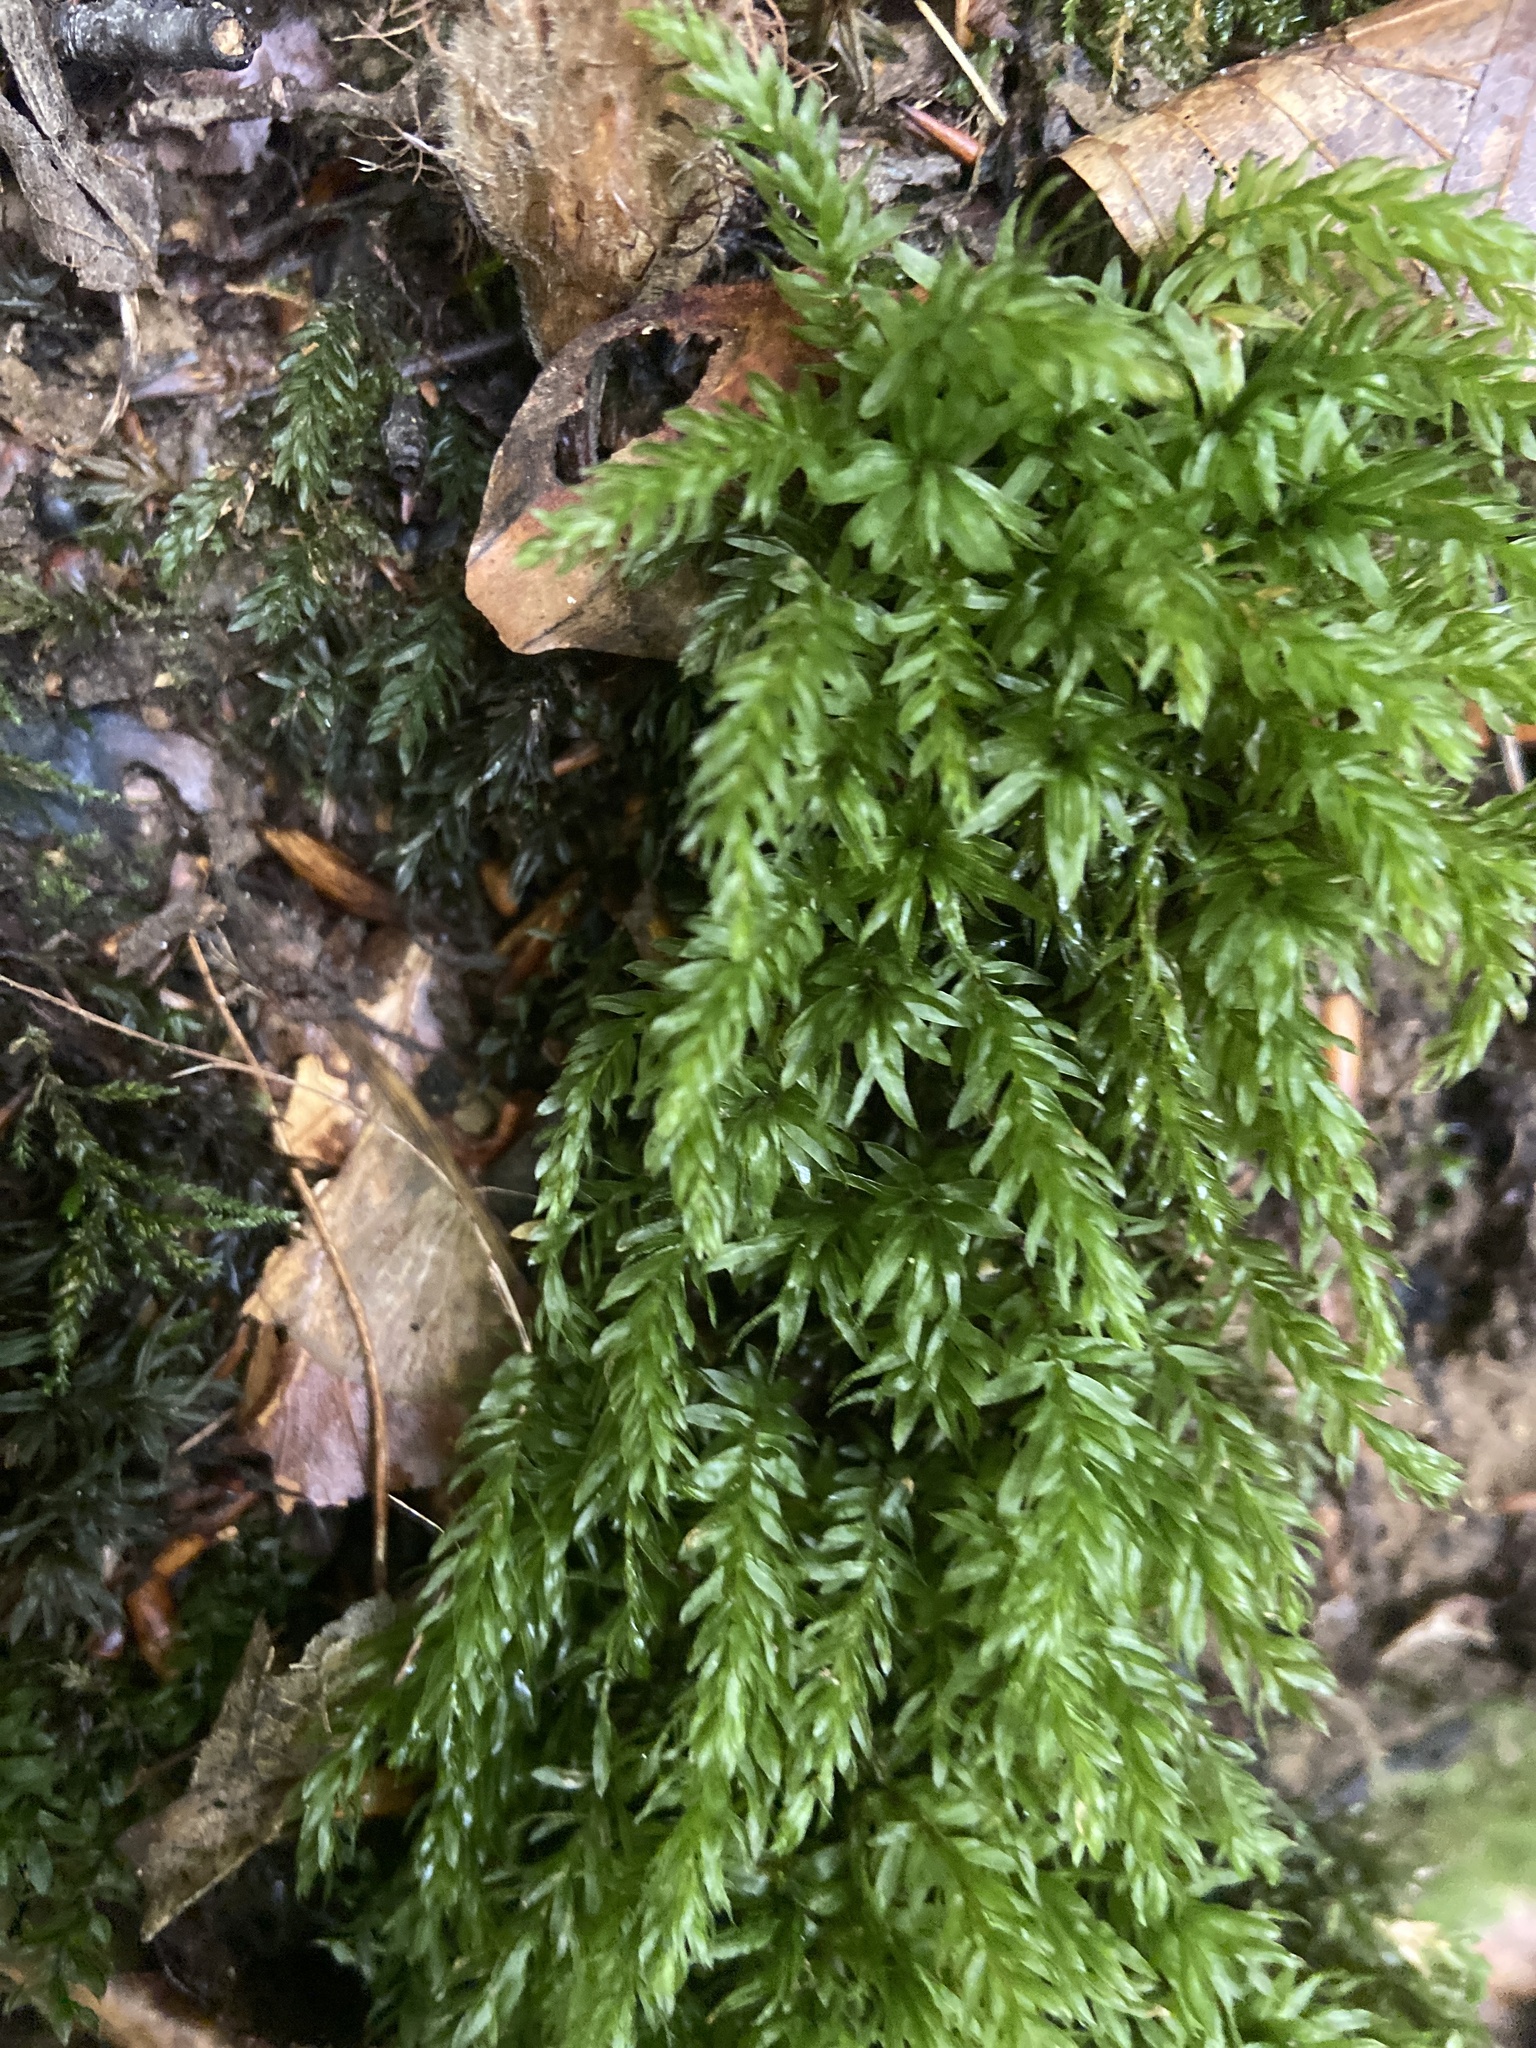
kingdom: Plantae
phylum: Bryophyta
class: Bryopsida
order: Bryales
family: Mniaceae
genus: Mnium
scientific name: Mnium hornum
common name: Swan's-neck leafy moss
